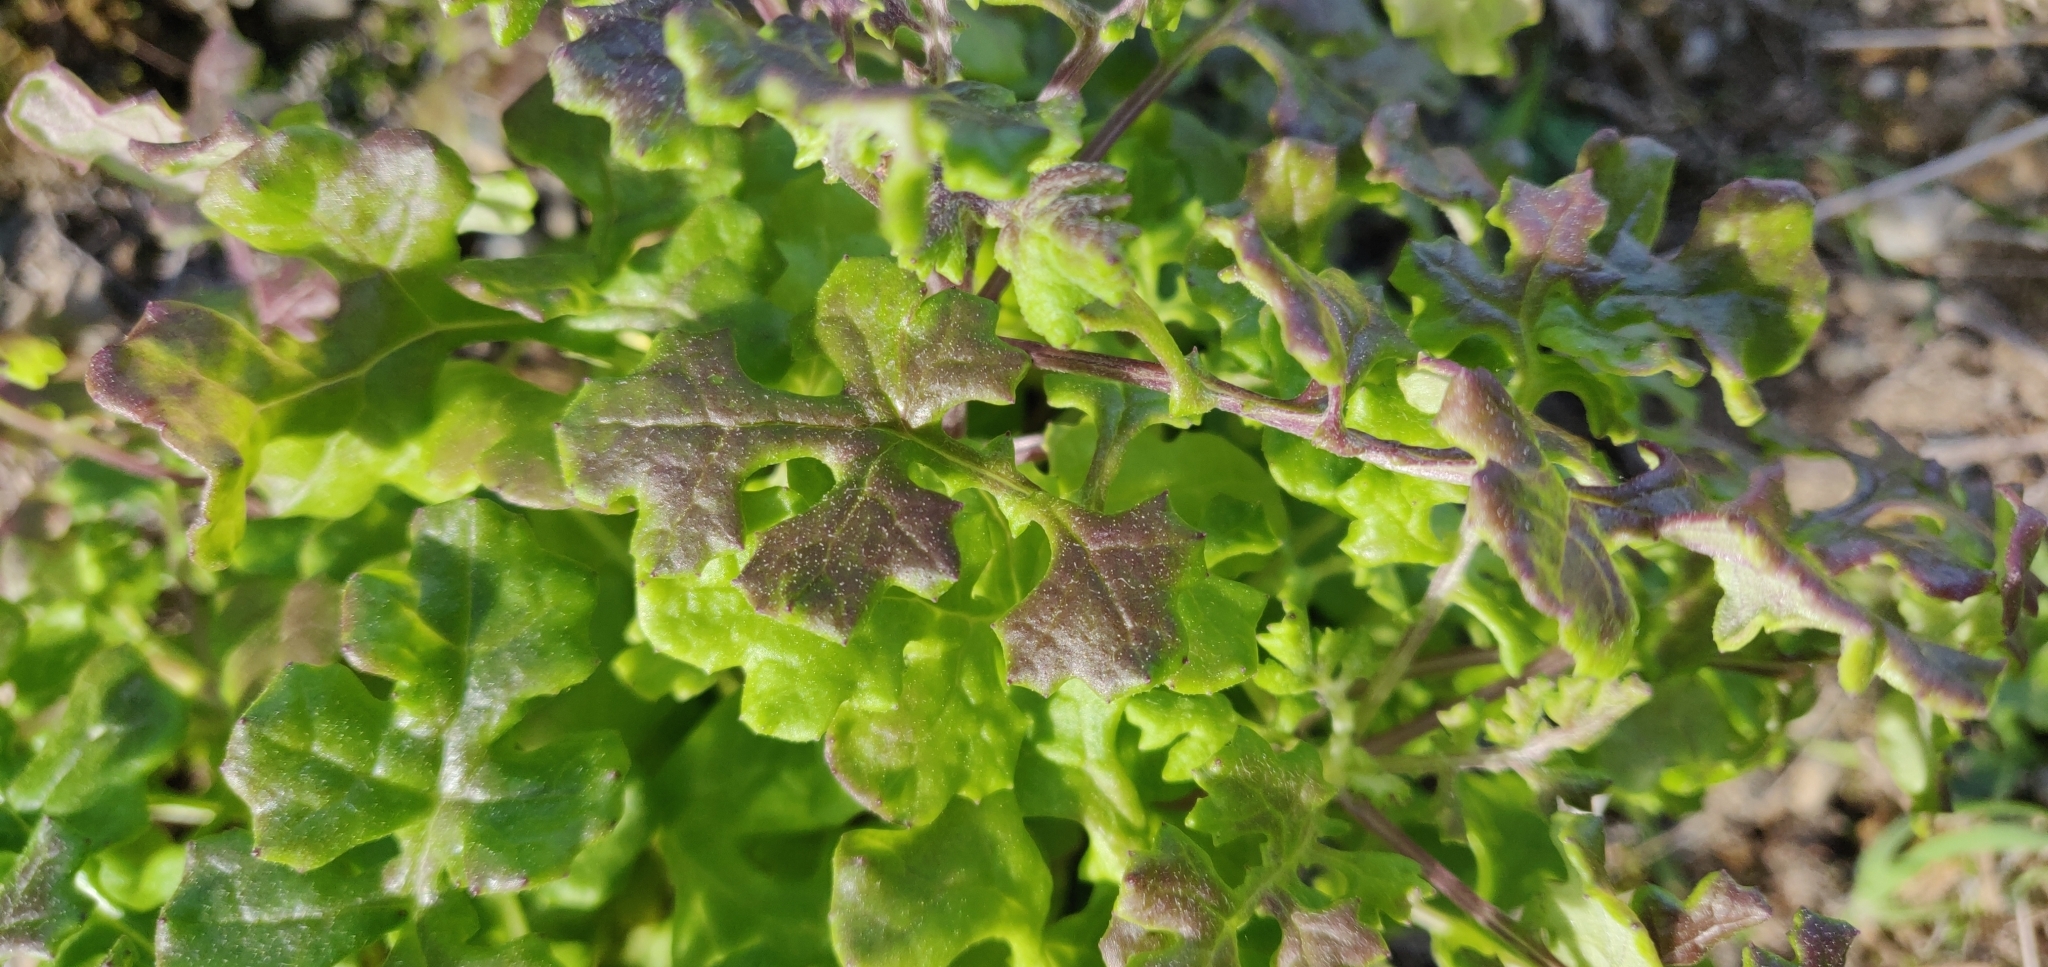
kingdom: Plantae
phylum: Tracheophyta
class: Magnoliopsida
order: Asterales
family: Asteraceae
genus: Senecio
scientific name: Senecio elegans
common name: Purple groundsel
